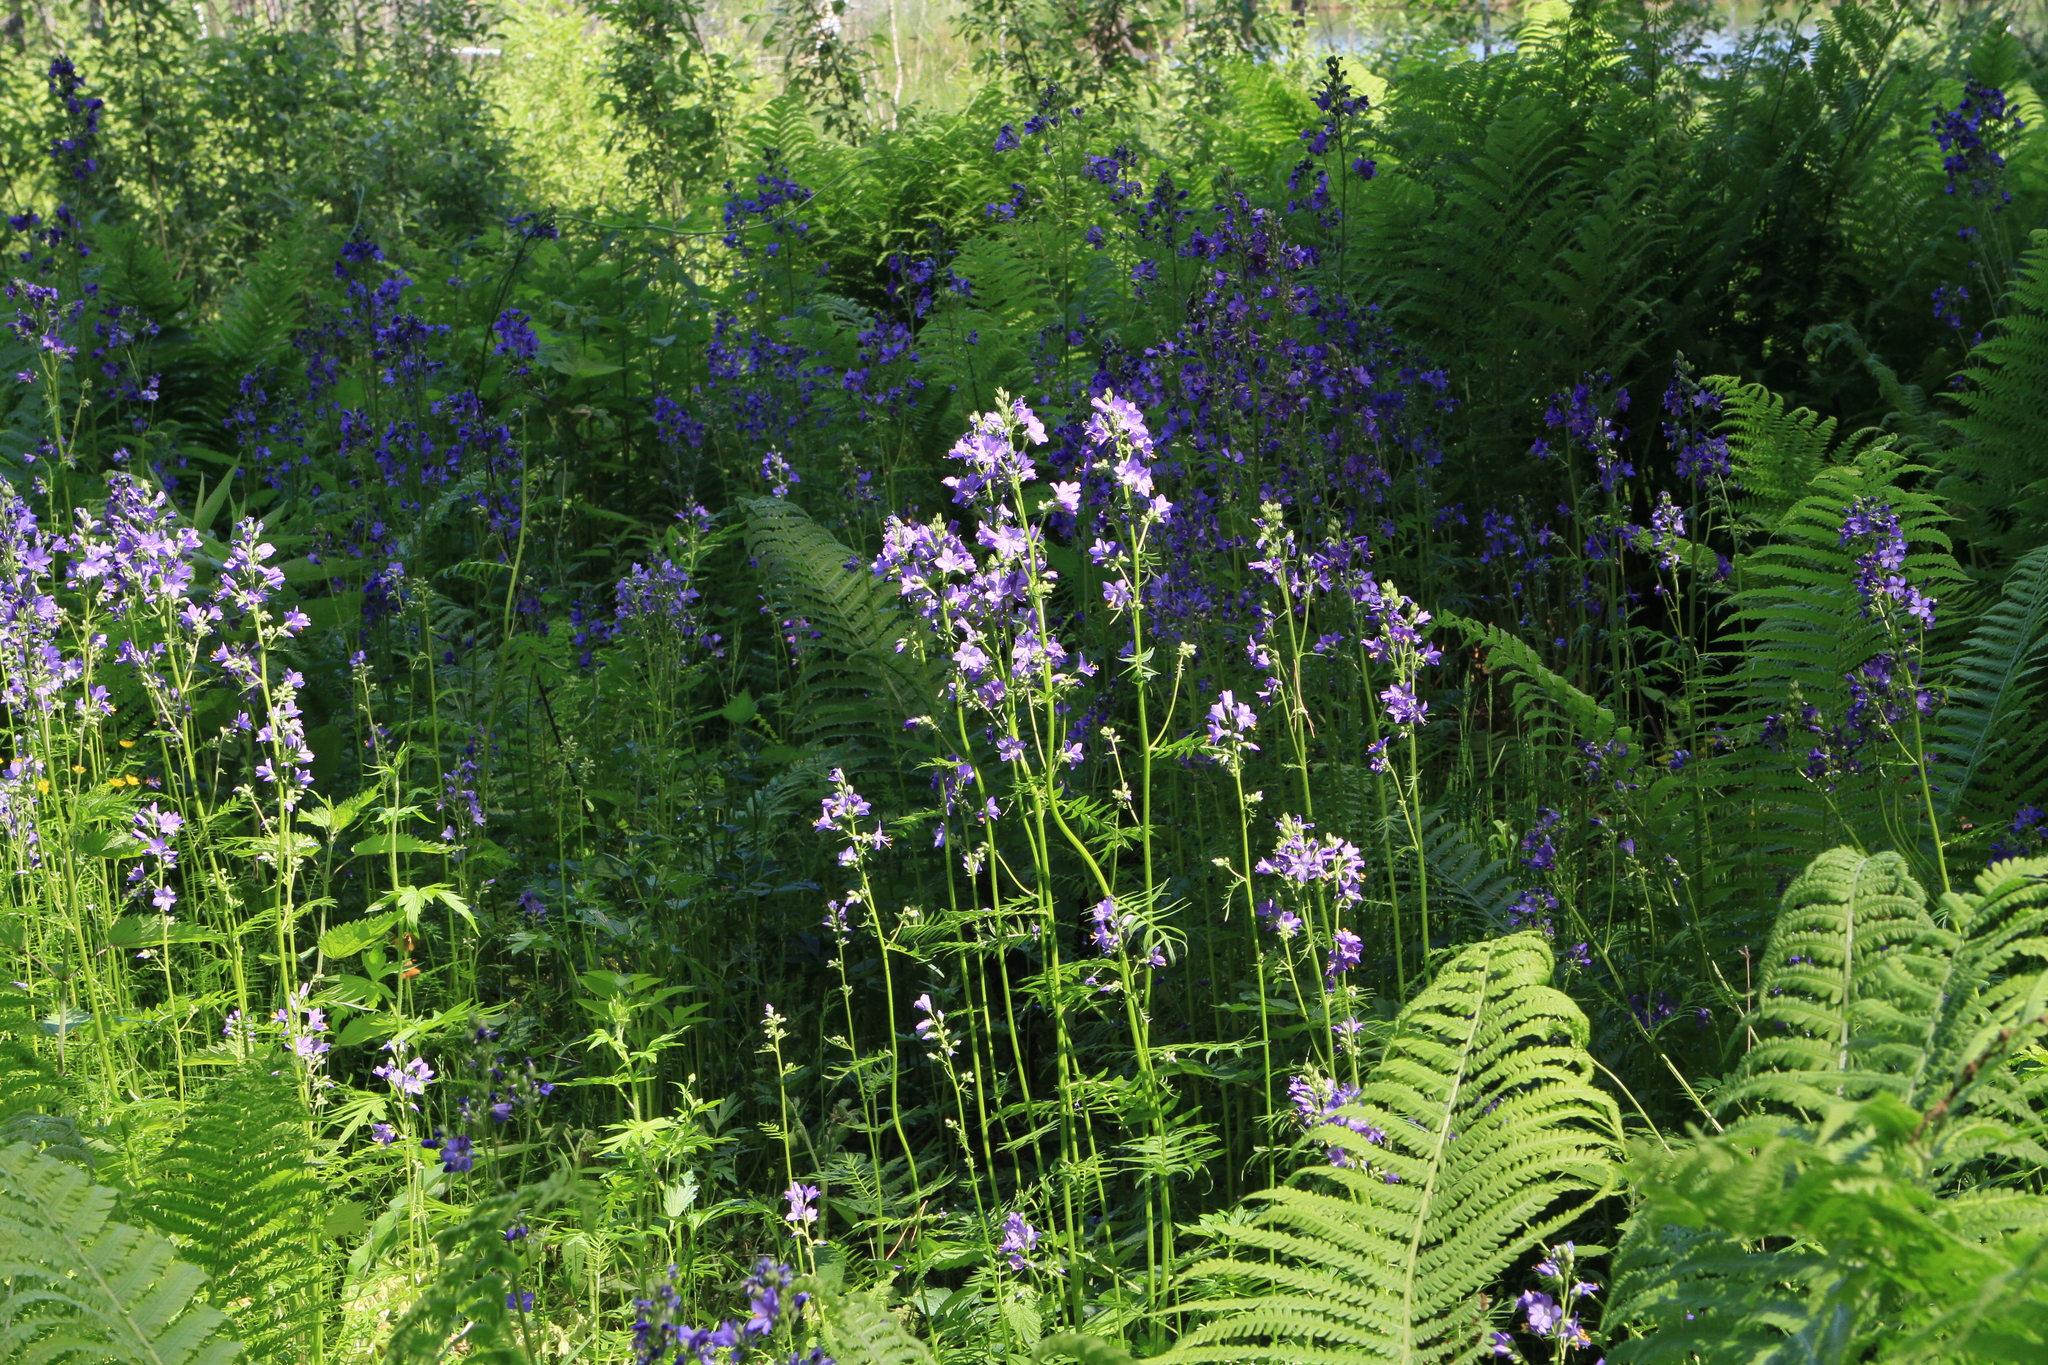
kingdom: Plantae
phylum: Tracheophyta
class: Magnoliopsida
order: Ericales
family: Polemoniaceae
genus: Polemonium
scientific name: Polemonium caeruleum
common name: Jacob's-ladder
